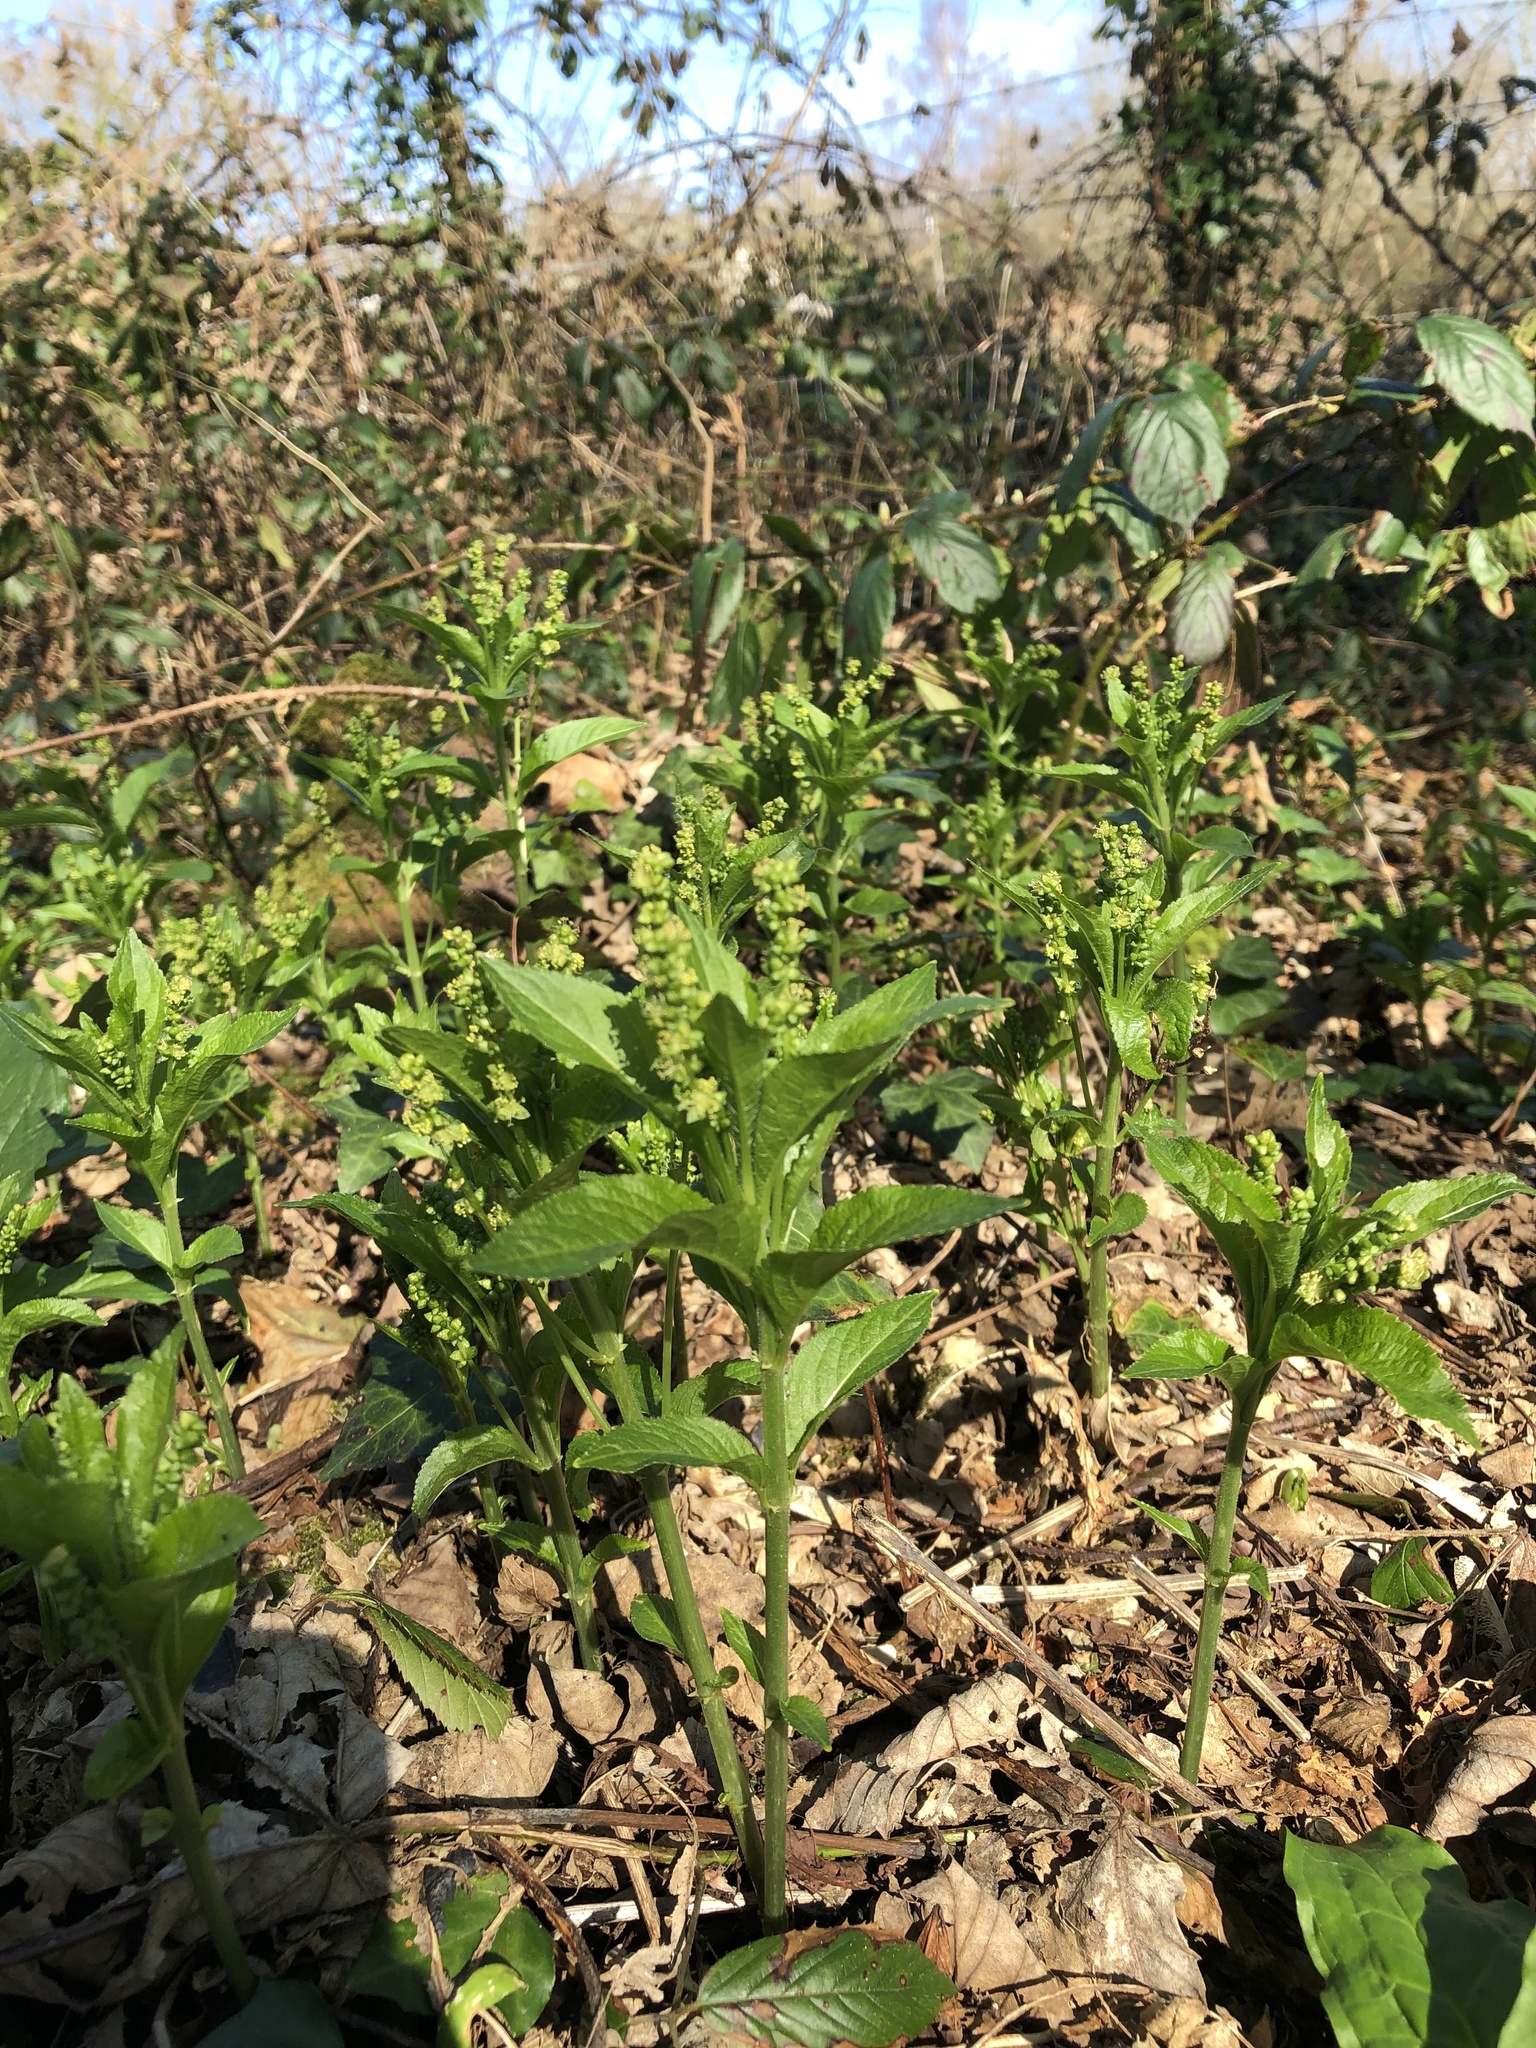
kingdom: Plantae
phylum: Tracheophyta
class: Magnoliopsida
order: Malpighiales
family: Euphorbiaceae
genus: Mercurialis
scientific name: Mercurialis perennis
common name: Dog mercury
